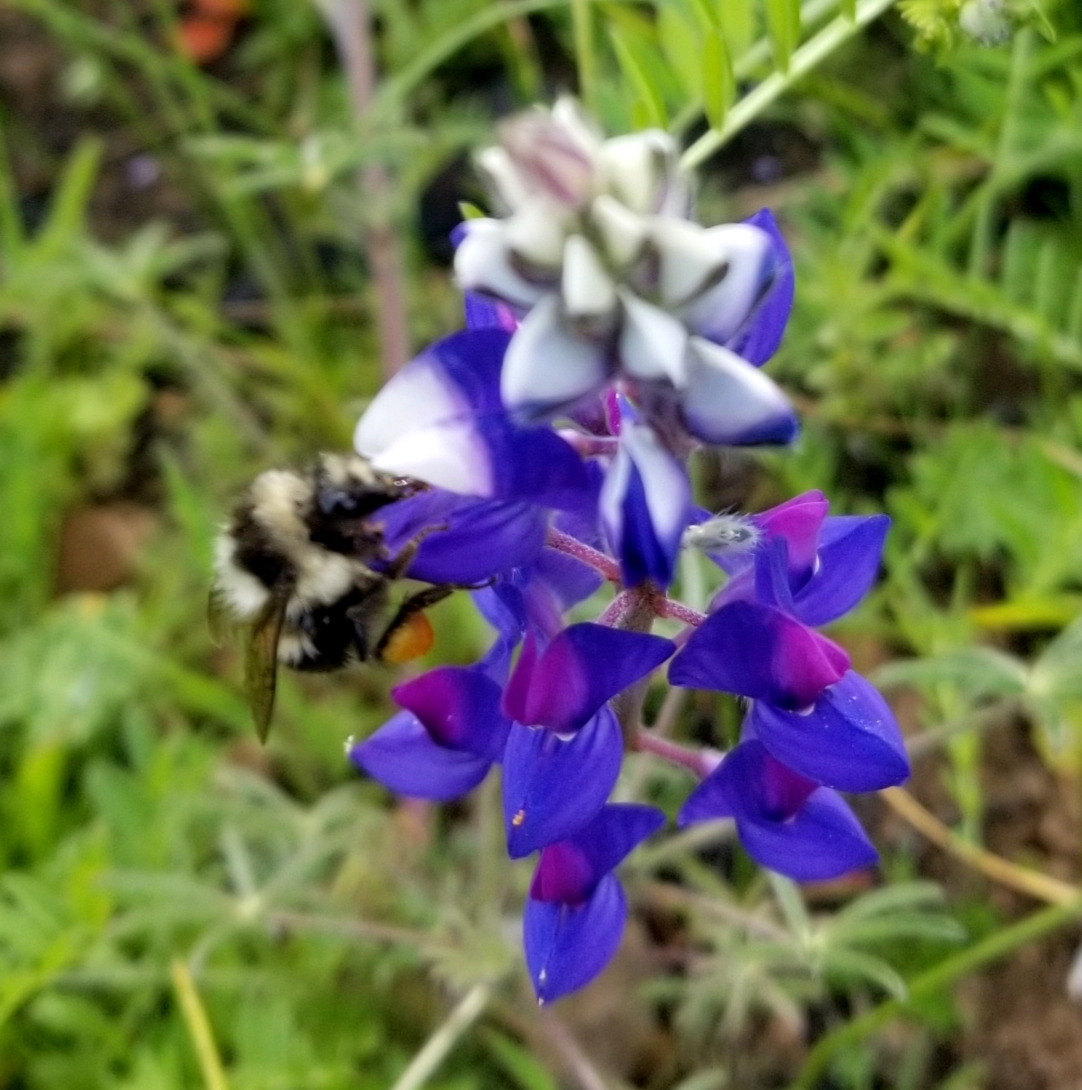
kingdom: Animalia
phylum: Arthropoda
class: Insecta
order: Hymenoptera
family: Apidae
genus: Bombus
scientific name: Bombus melanopygus
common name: Black tail bumble bee
